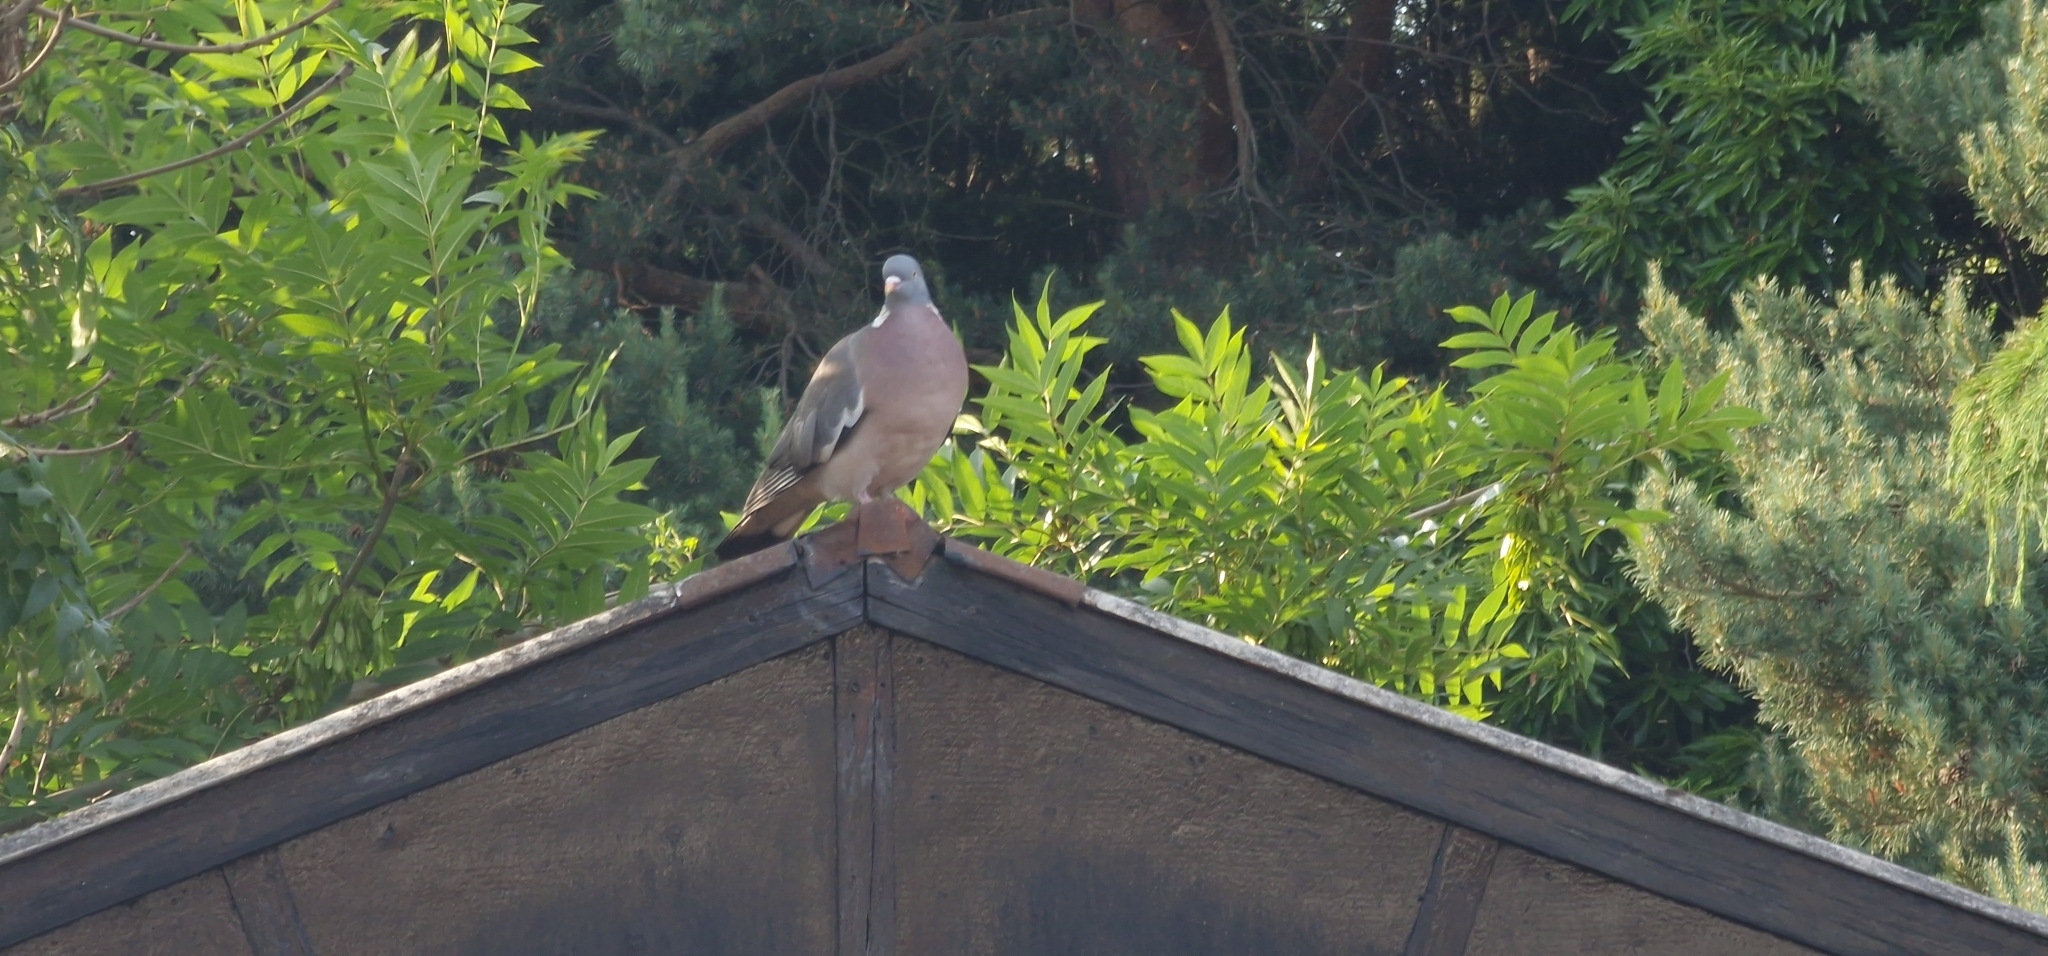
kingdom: Animalia
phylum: Chordata
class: Aves
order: Columbiformes
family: Columbidae
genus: Columba
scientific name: Columba palumbus
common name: Common wood pigeon
